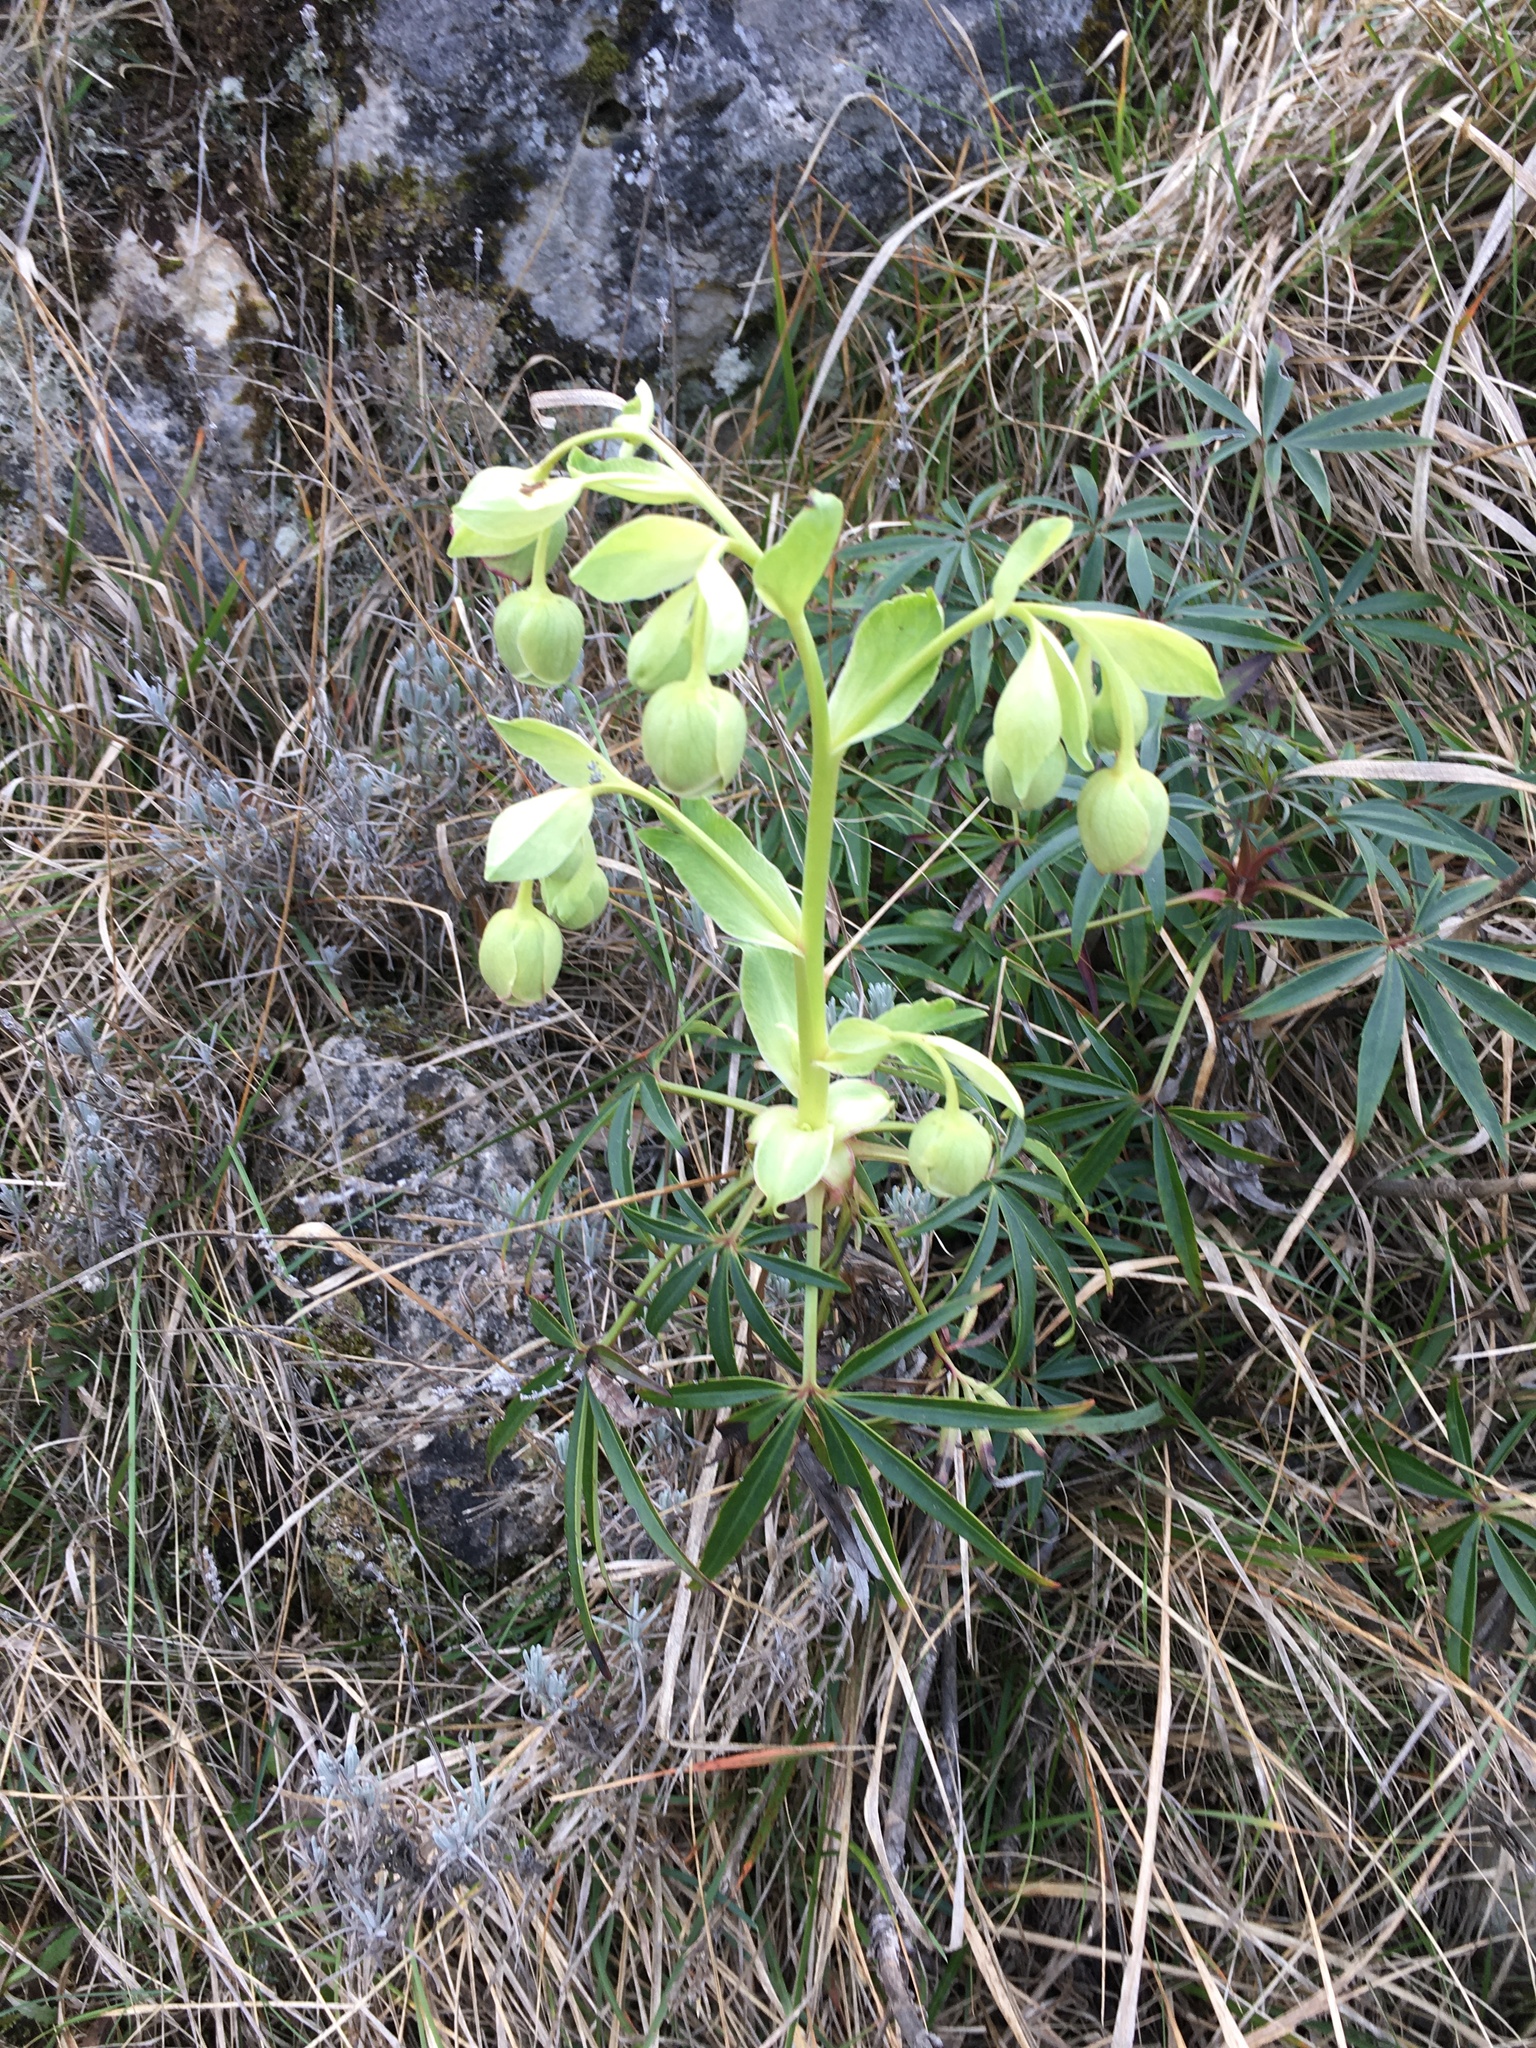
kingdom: Plantae
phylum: Tracheophyta
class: Magnoliopsida
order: Ranunculales
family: Ranunculaceae
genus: Helleborus
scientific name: Helleborus foetidus
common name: Stinking hellebore
